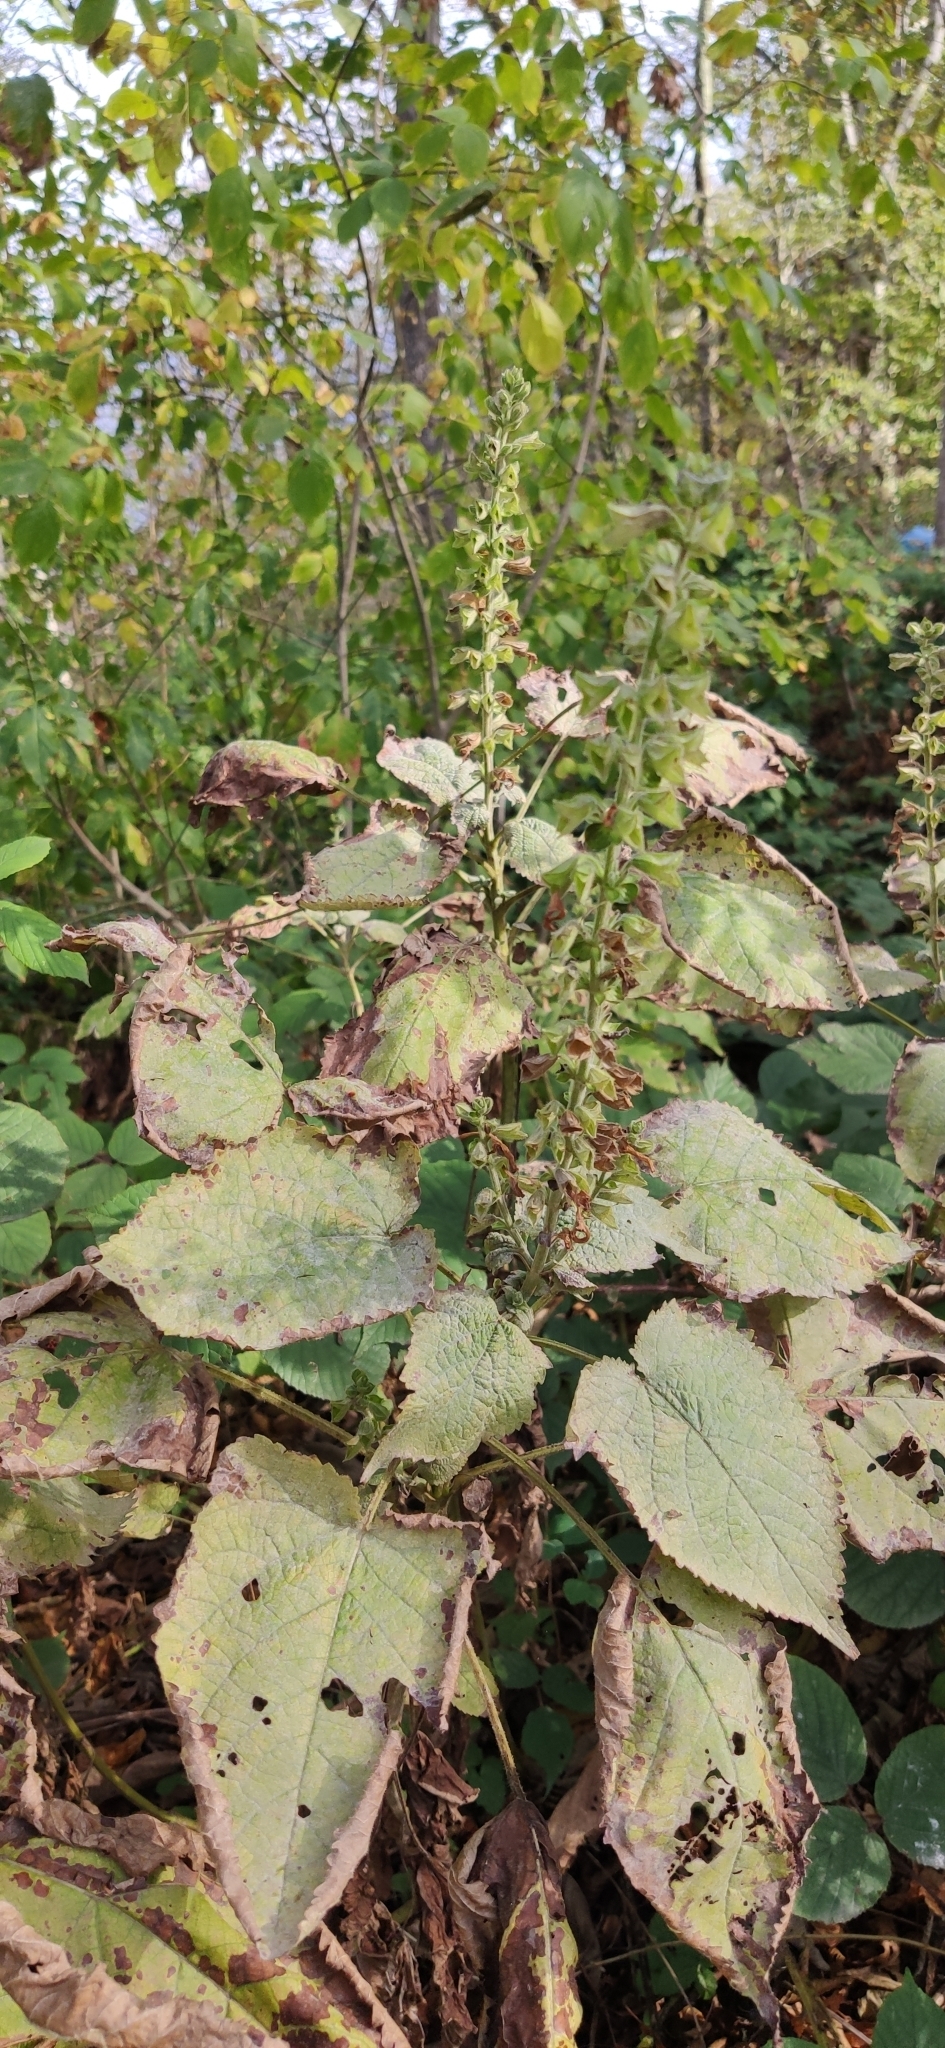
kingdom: Plantae
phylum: Tracheophyta
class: Magnoliopsida
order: Lamiales
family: Lamiaceae
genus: Salvia
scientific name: Salvia glutinosa
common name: Sticky clary
